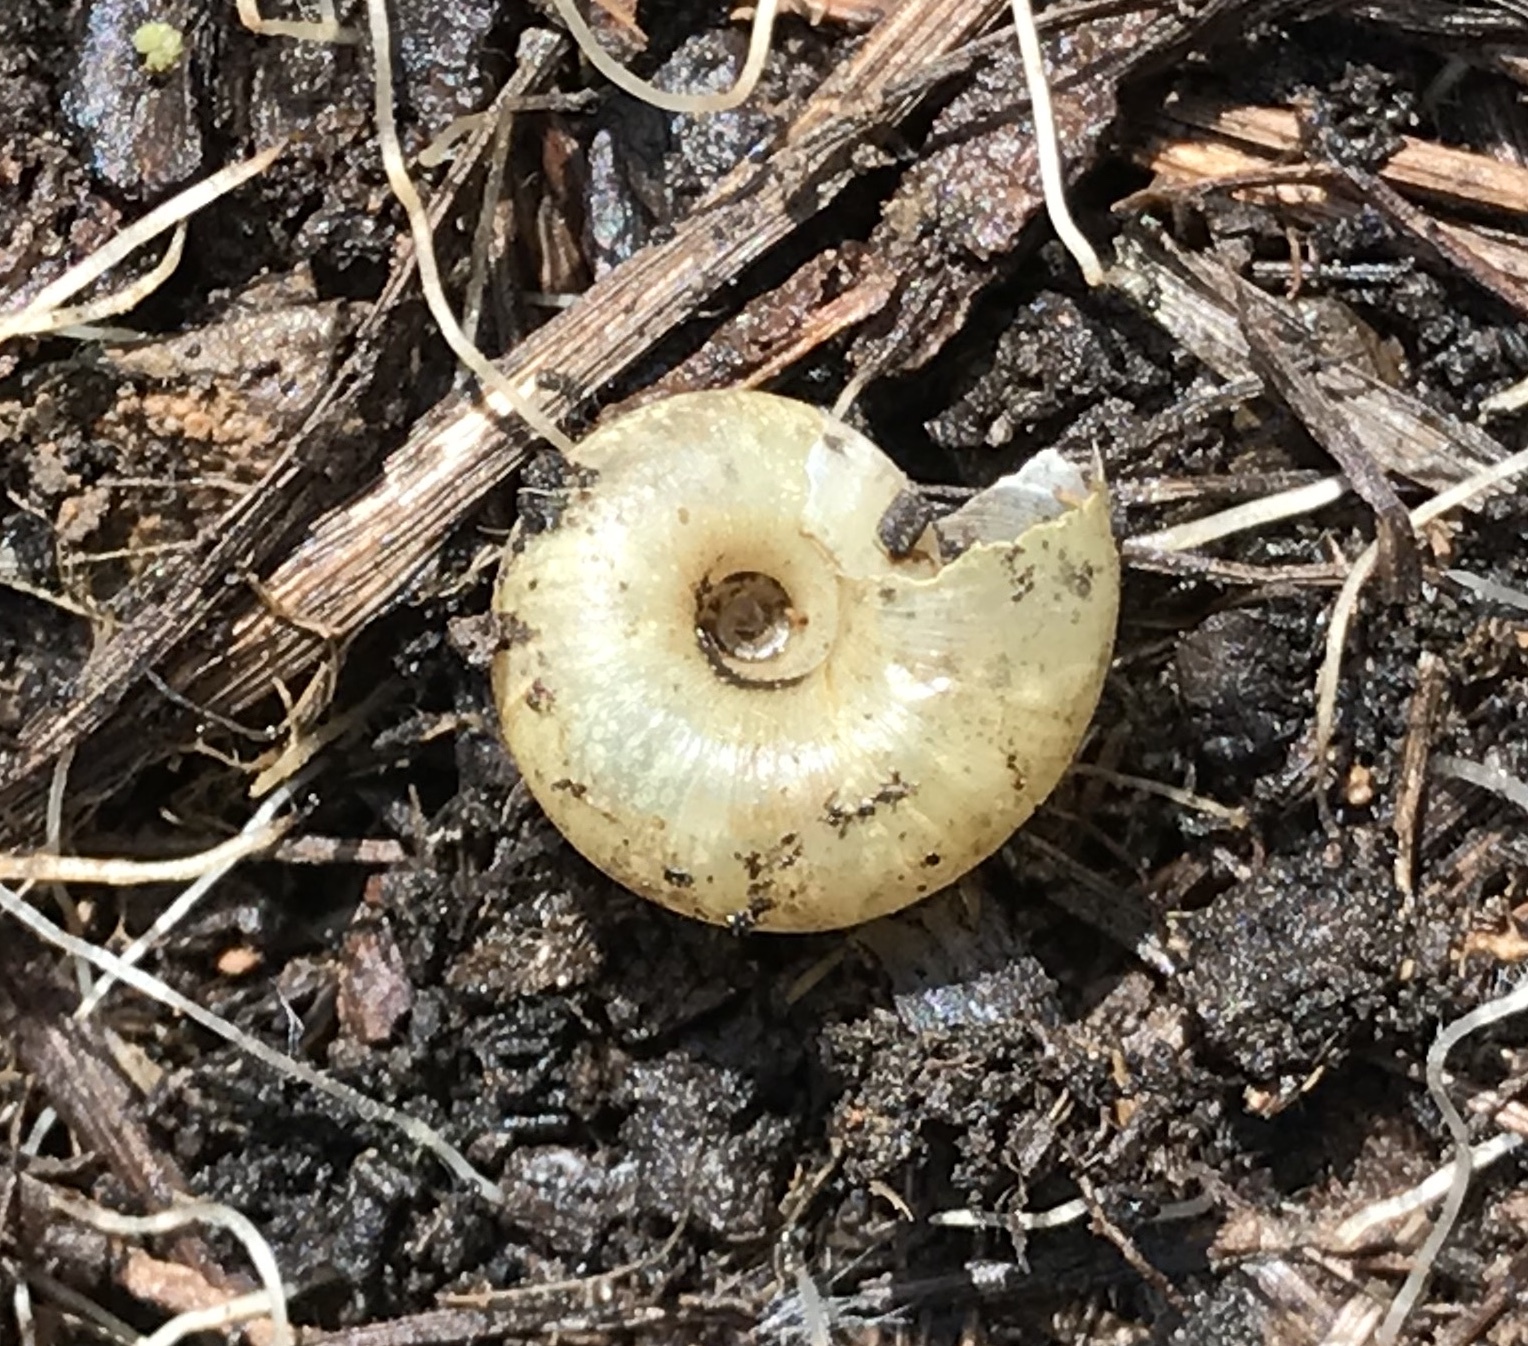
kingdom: Animalia
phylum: Mollusca
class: Gastropoda
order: Stylommatophora
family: Haplotrematidae
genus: Haplotrema
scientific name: Haplotrema minimum
